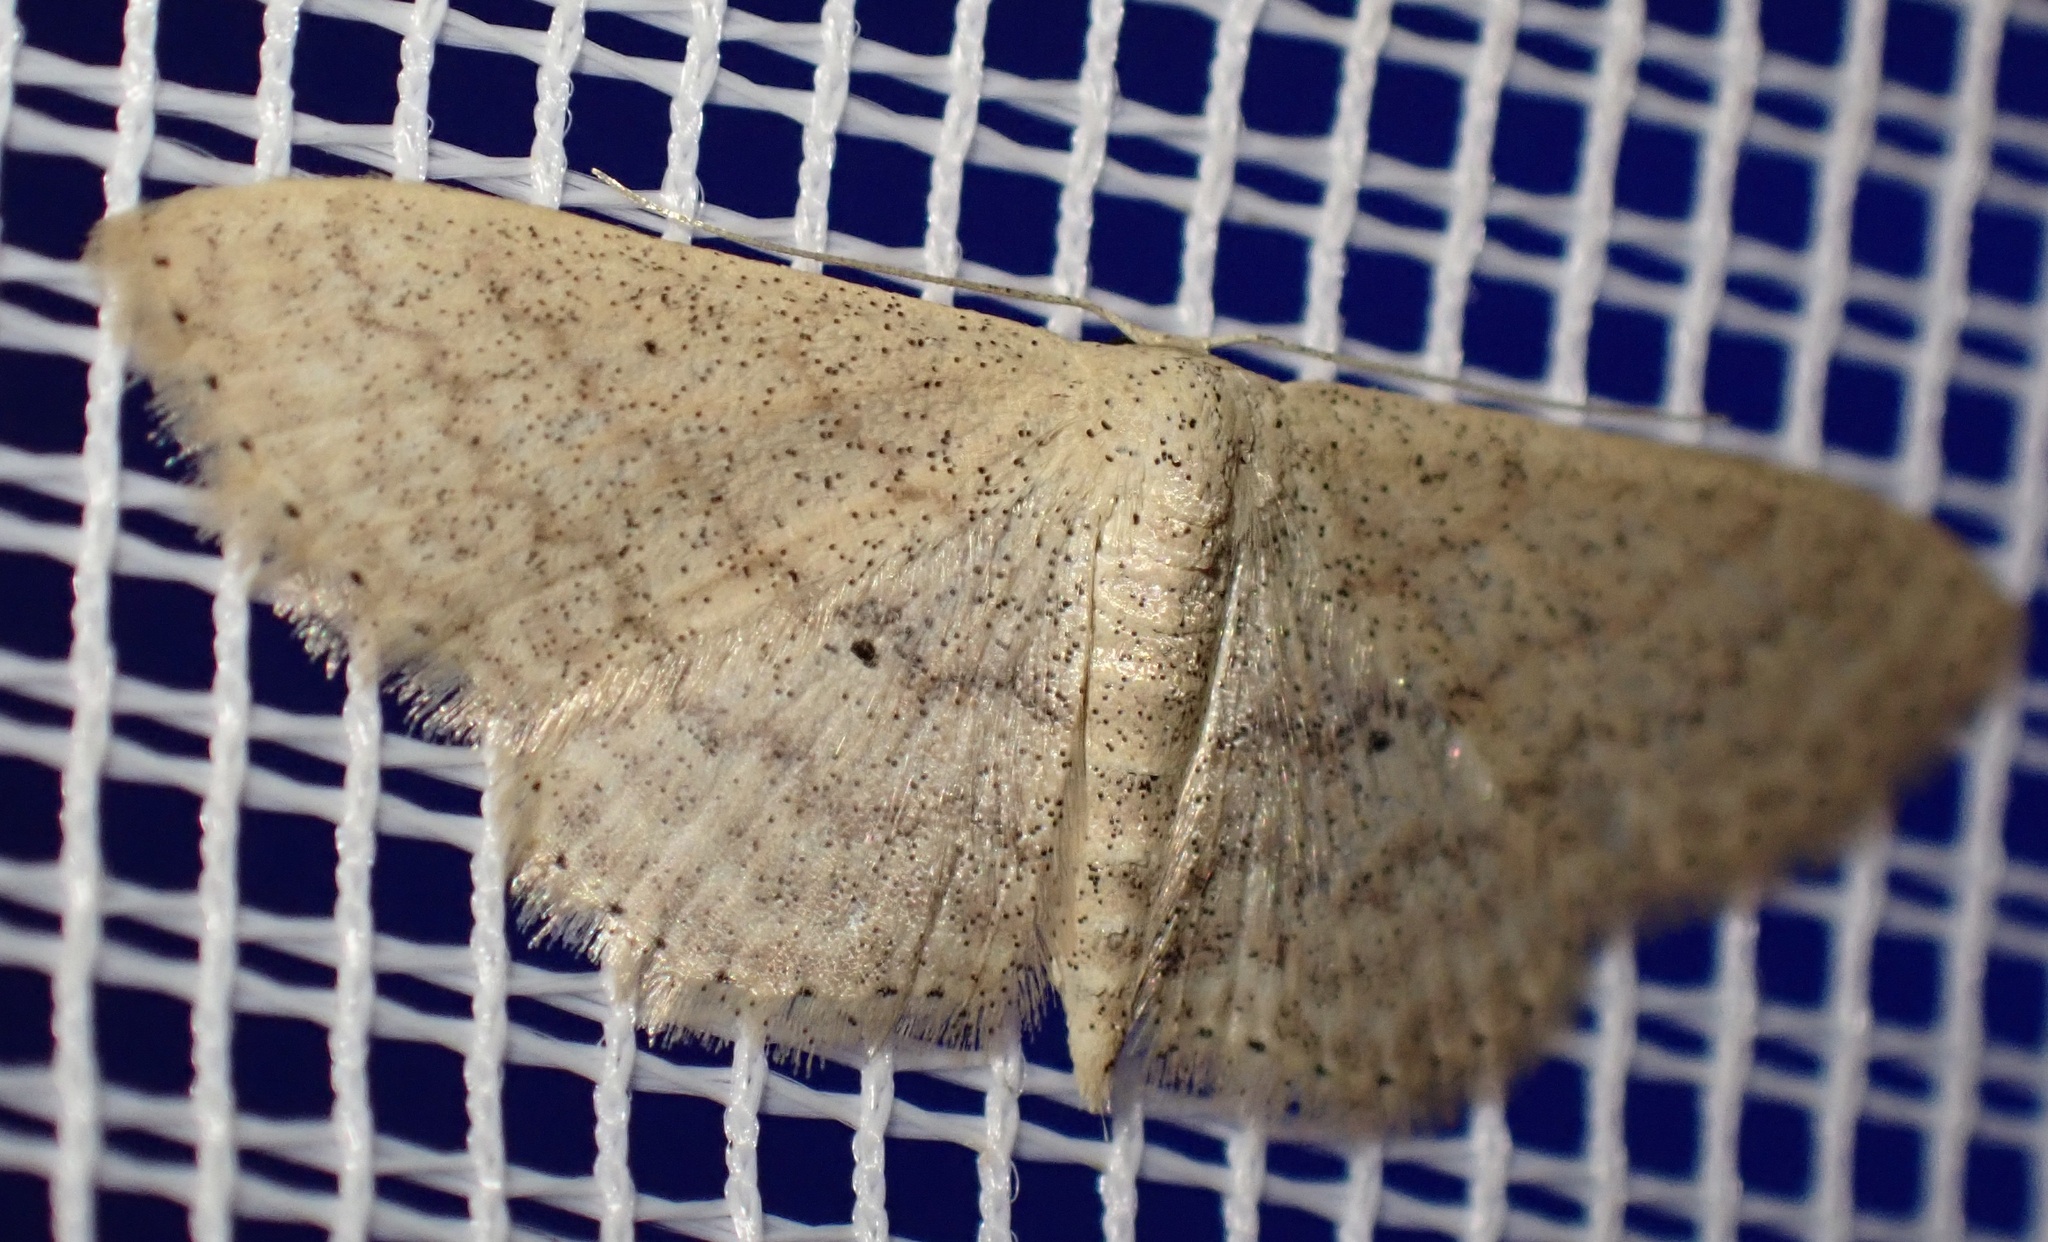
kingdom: Animalia
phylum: Arthropoda
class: Insecta
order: Lepidoptera
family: Geometridae
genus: Scopula
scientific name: Scopula minorata
